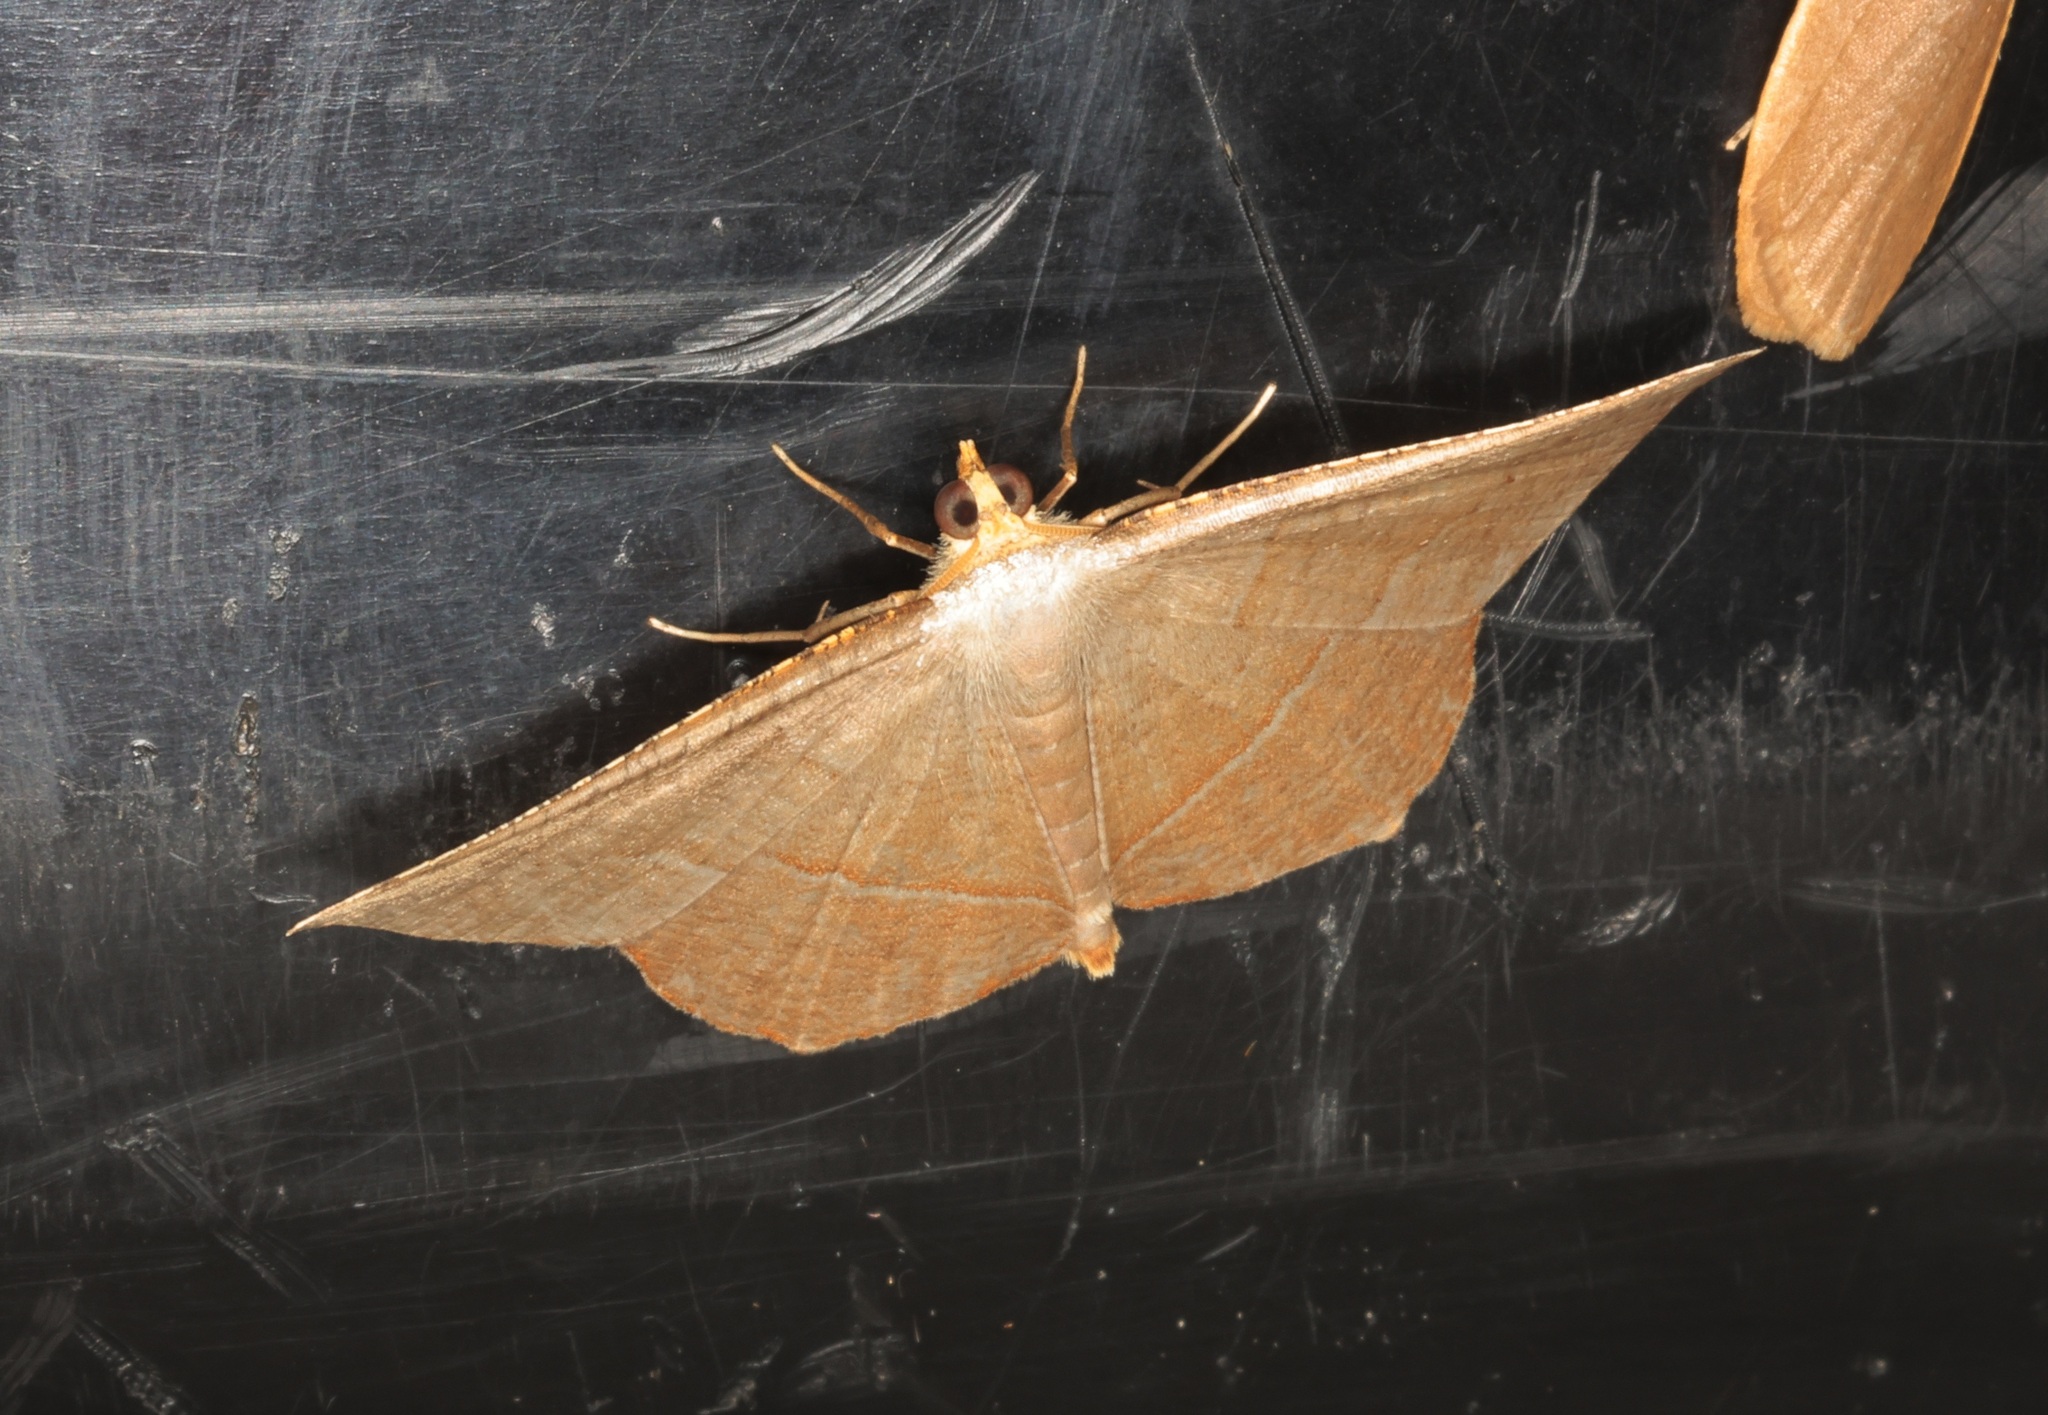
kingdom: Animalia
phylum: Arthropoda
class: Insecta
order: Lepidoptera
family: Geometridae
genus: Plesiomorpha
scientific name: Plesiomorpha flaviceps
